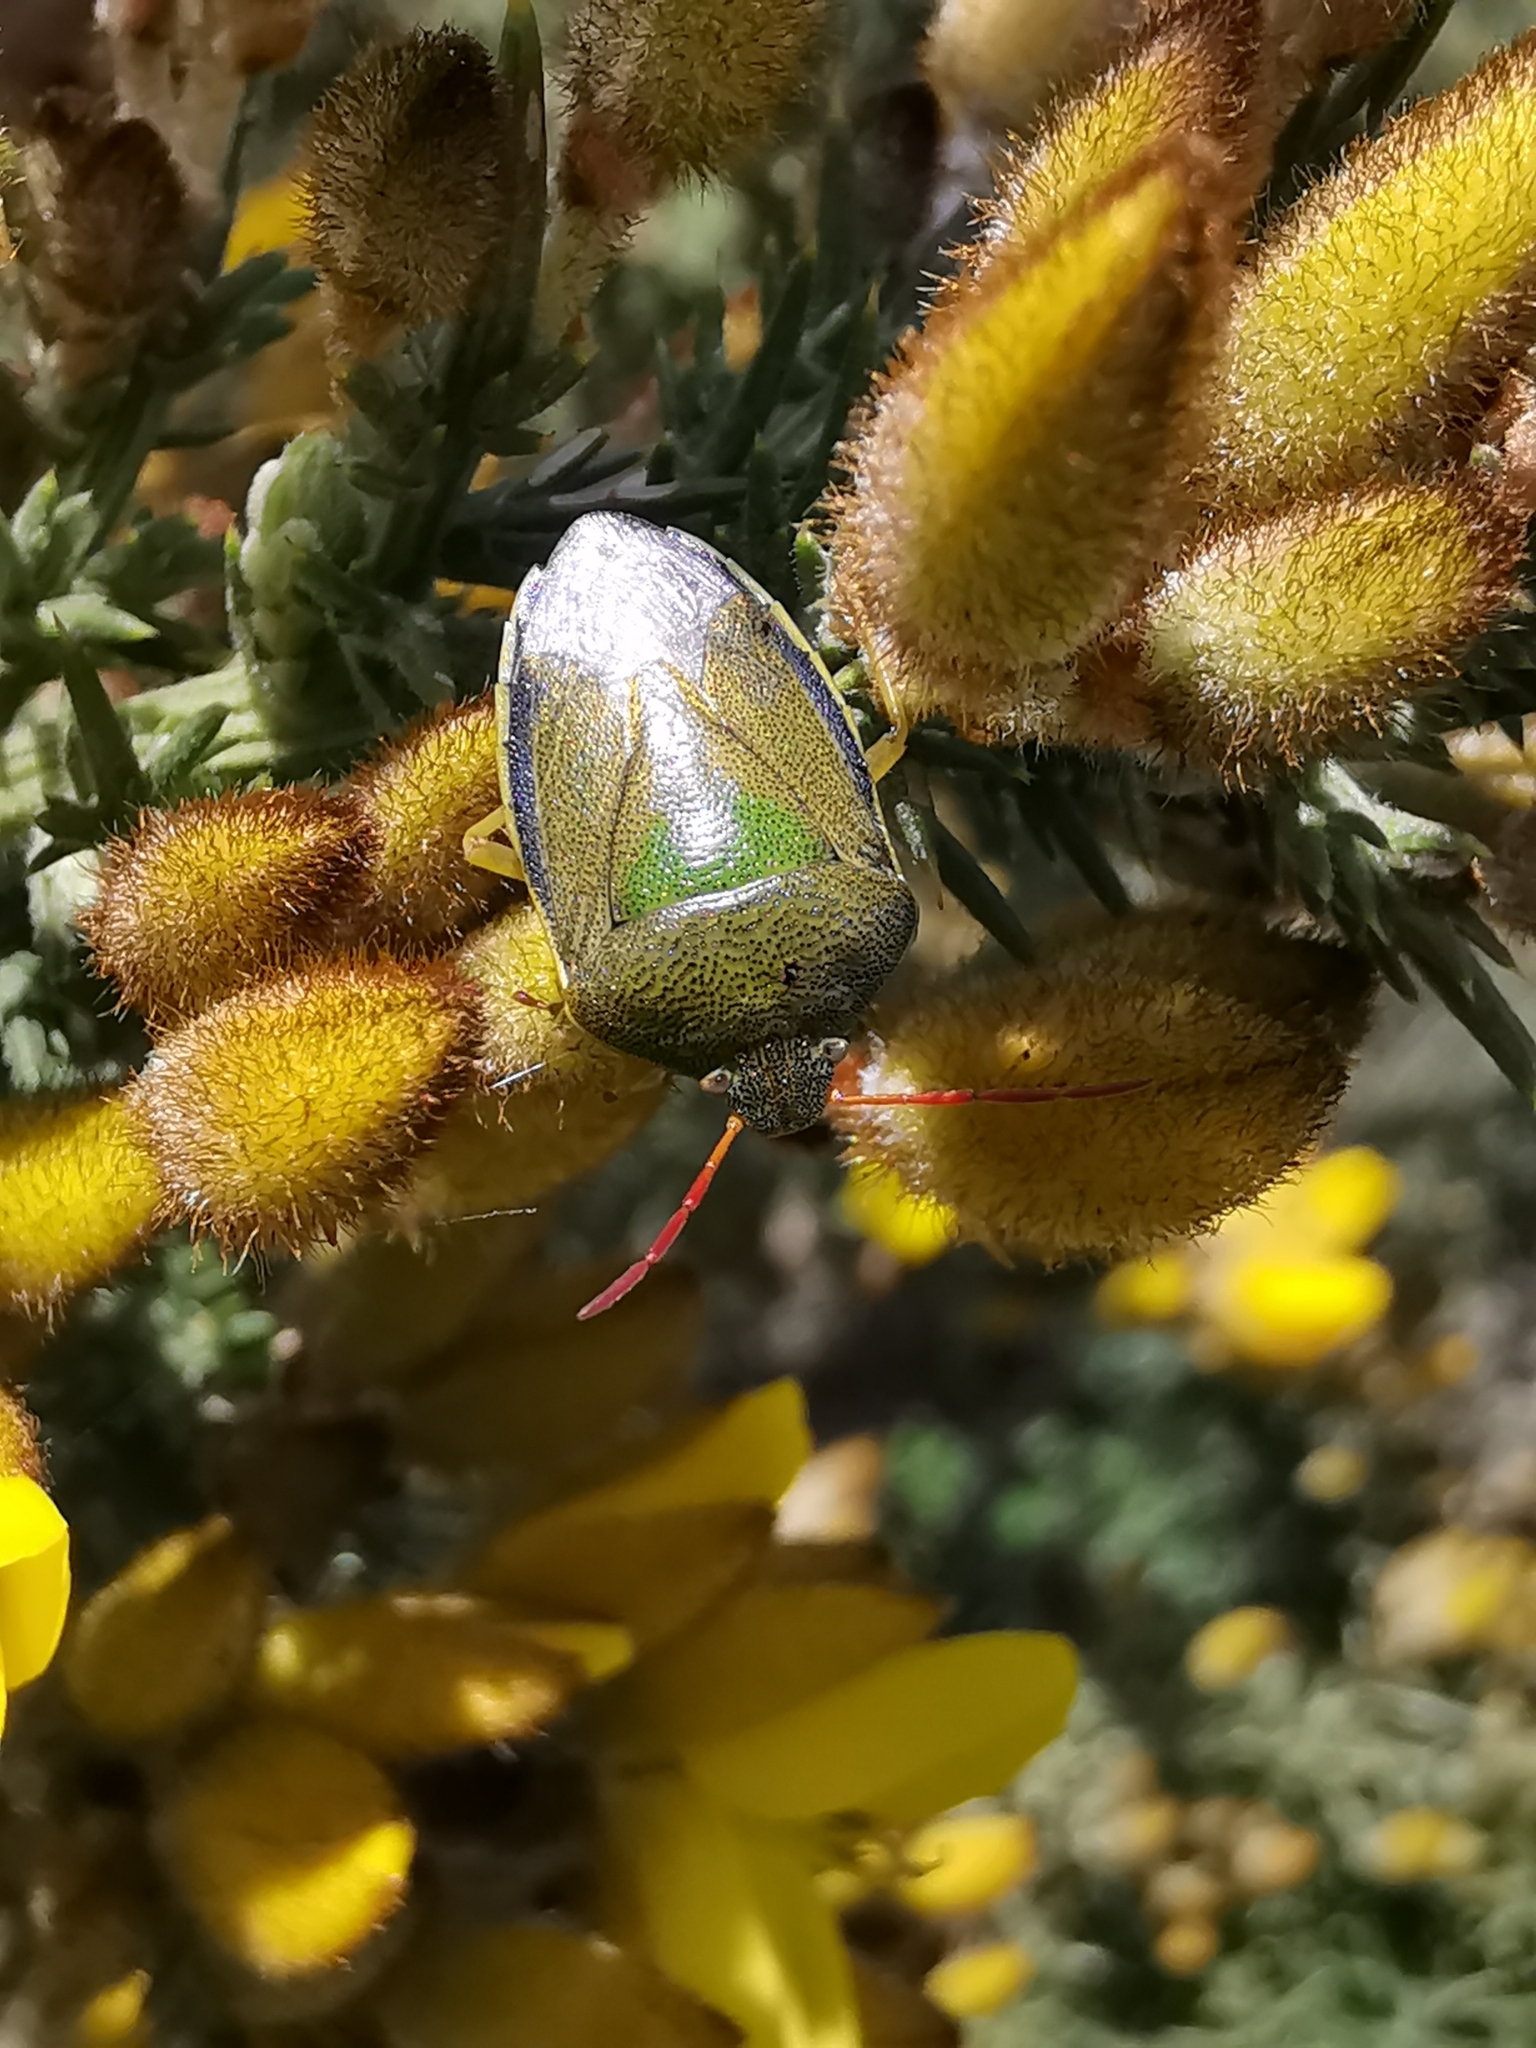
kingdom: Animalia
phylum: Arthropoda
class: Insecta
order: Hemiptera
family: Pentatomidae
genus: Piezodorus
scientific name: Piezodorus lituratus
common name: Stink bug
